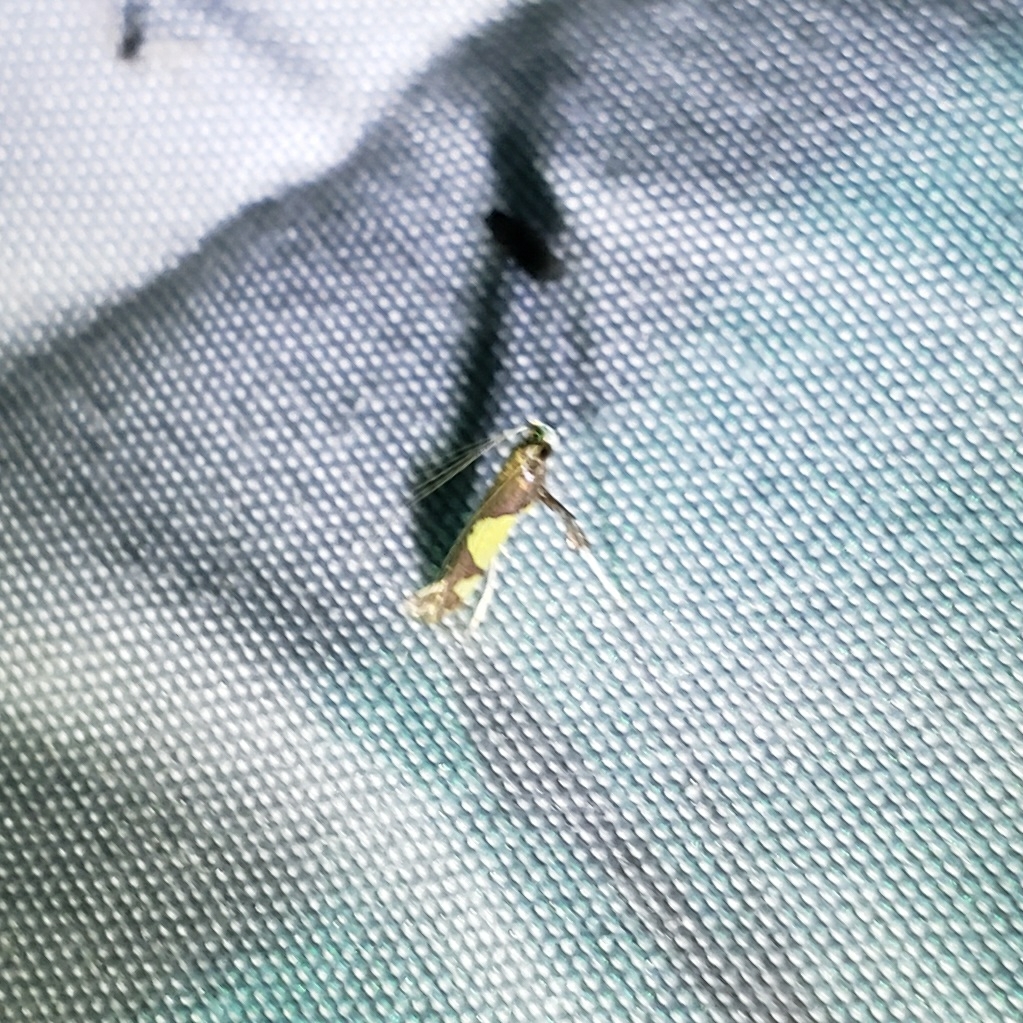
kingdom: Animalia
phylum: Arthropoda
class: Insecta
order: Lepidoptera
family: Gracillariidae
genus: Caloptilia
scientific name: Caloptilia bimaculatella
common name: Maple caloptilia moth
